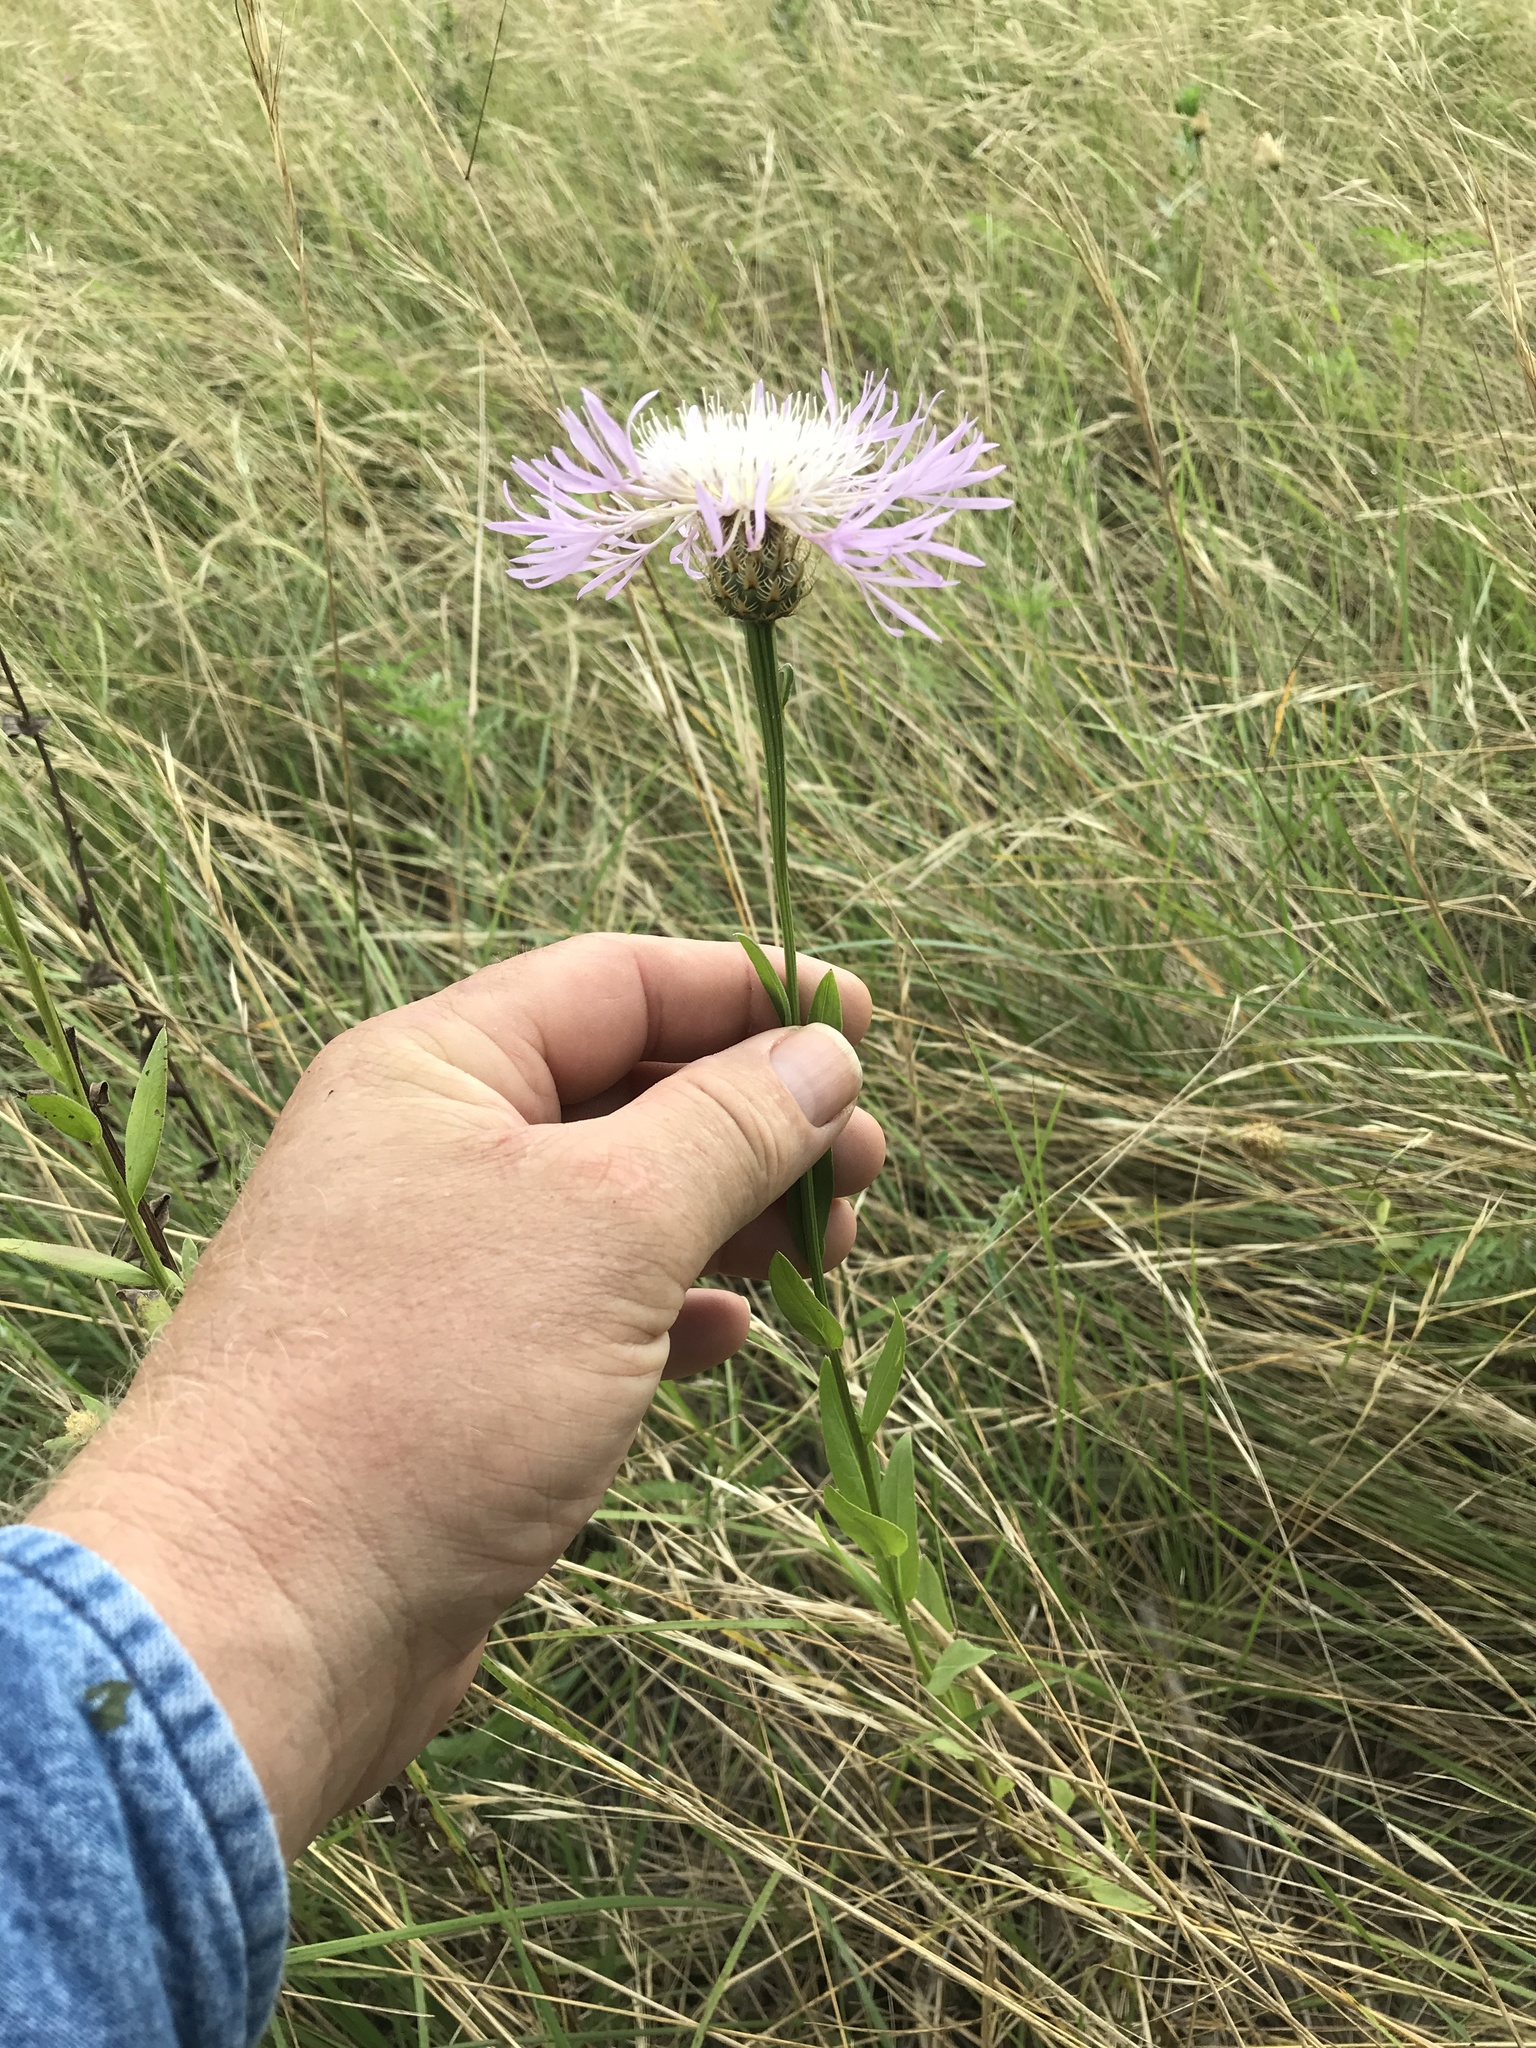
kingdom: Plantae
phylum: Tracheophyta
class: Magnoliopsida
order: Asterales
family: Asteraceae
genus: Plectocephalus
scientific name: Plectocephalus americanus
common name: American basket-flower
